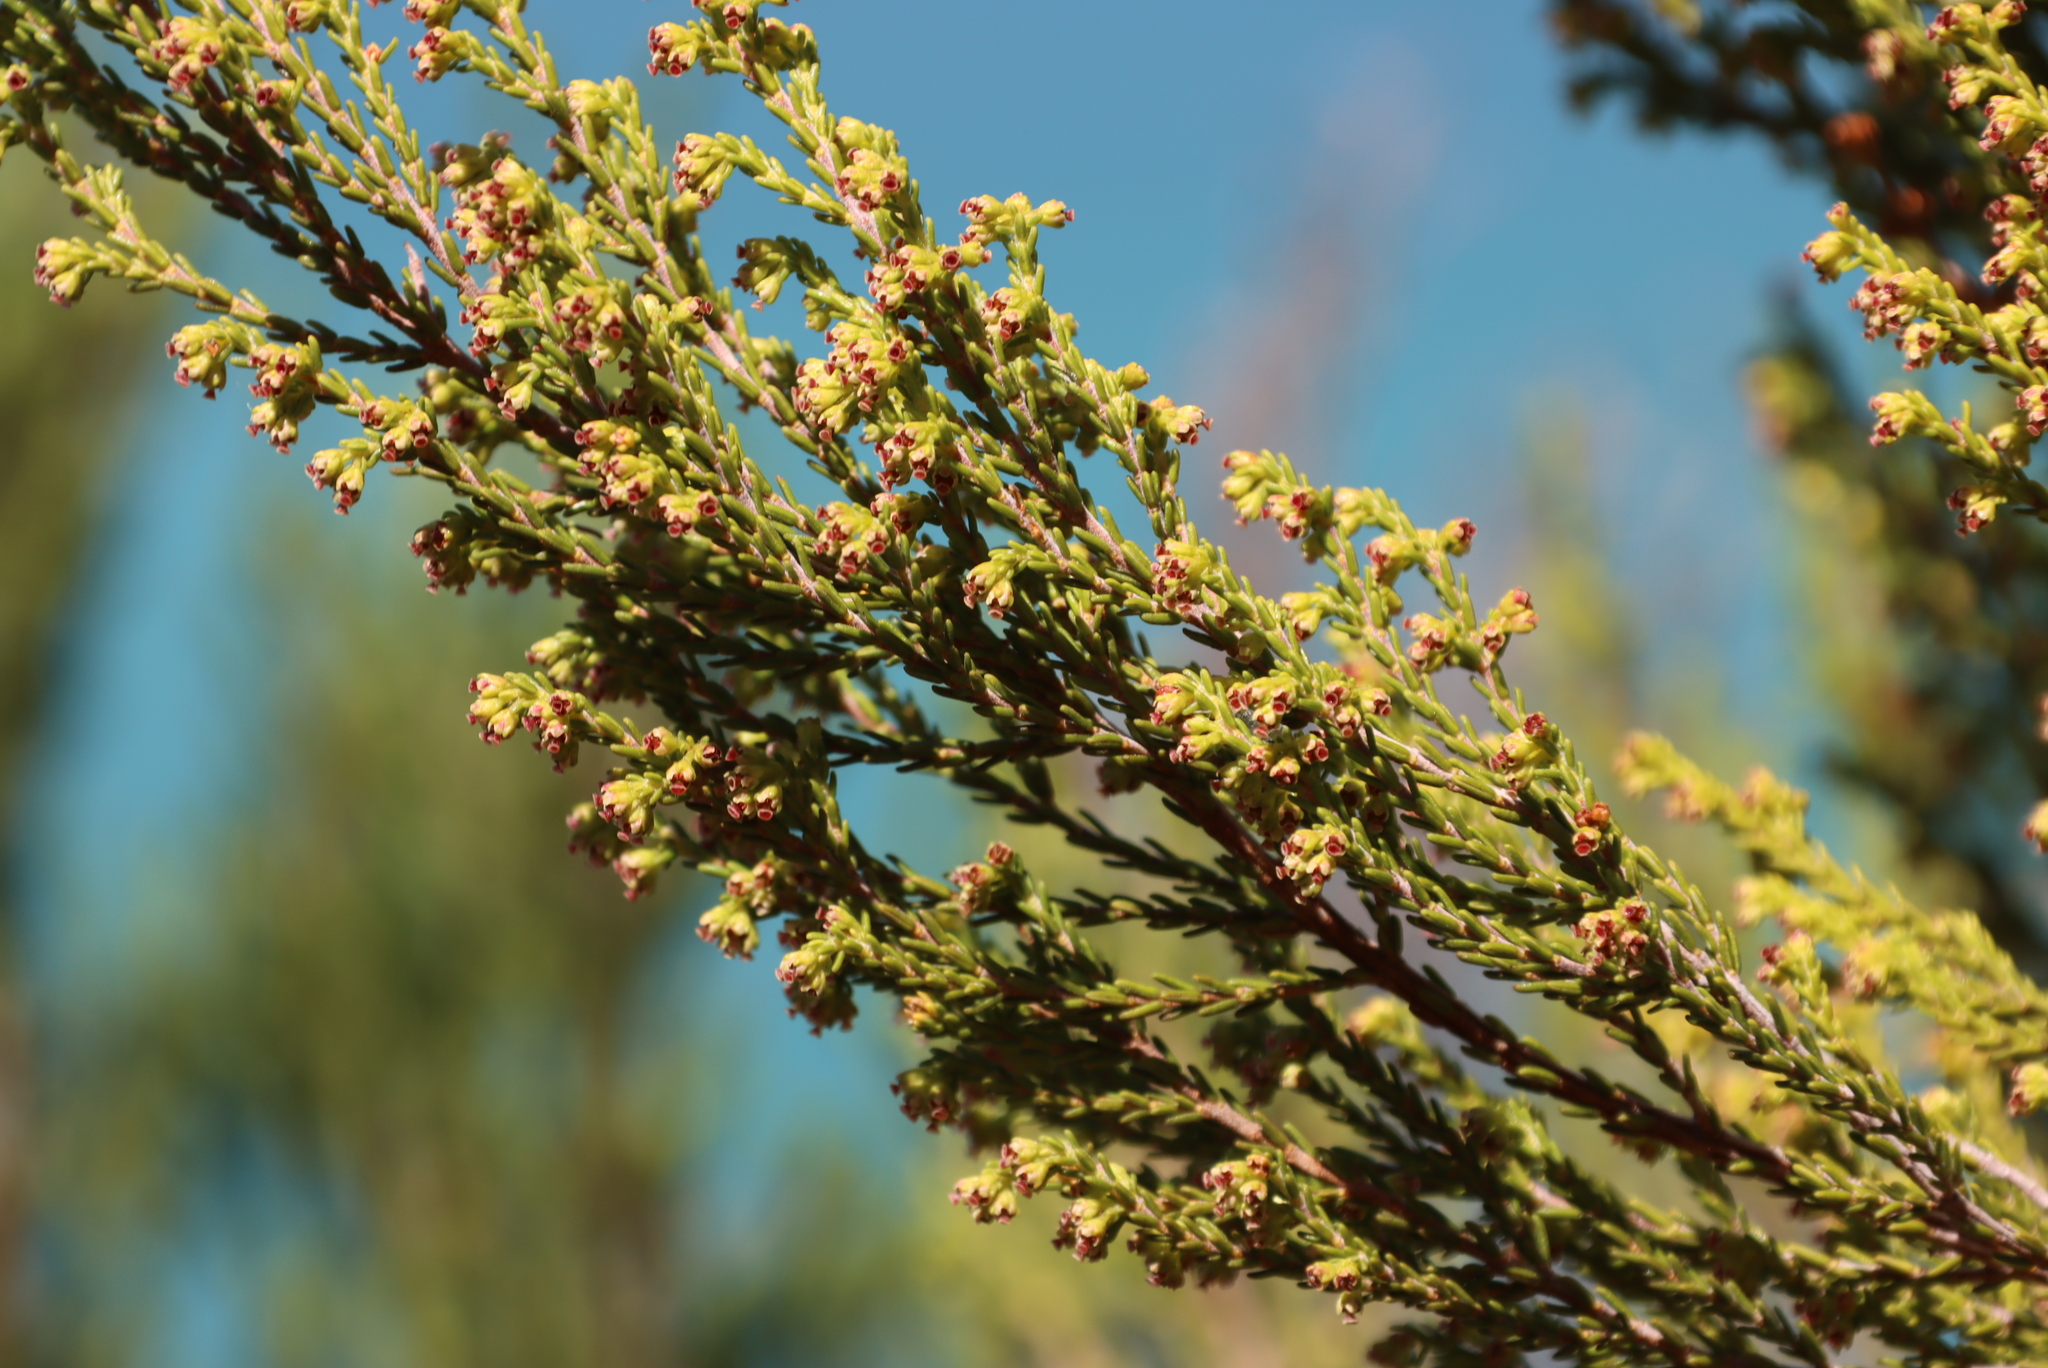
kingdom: Plantae
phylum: Tracheophyta
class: Magnoliopsida
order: Ericales
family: Ericaceae
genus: Erica
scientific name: Erica tristis
